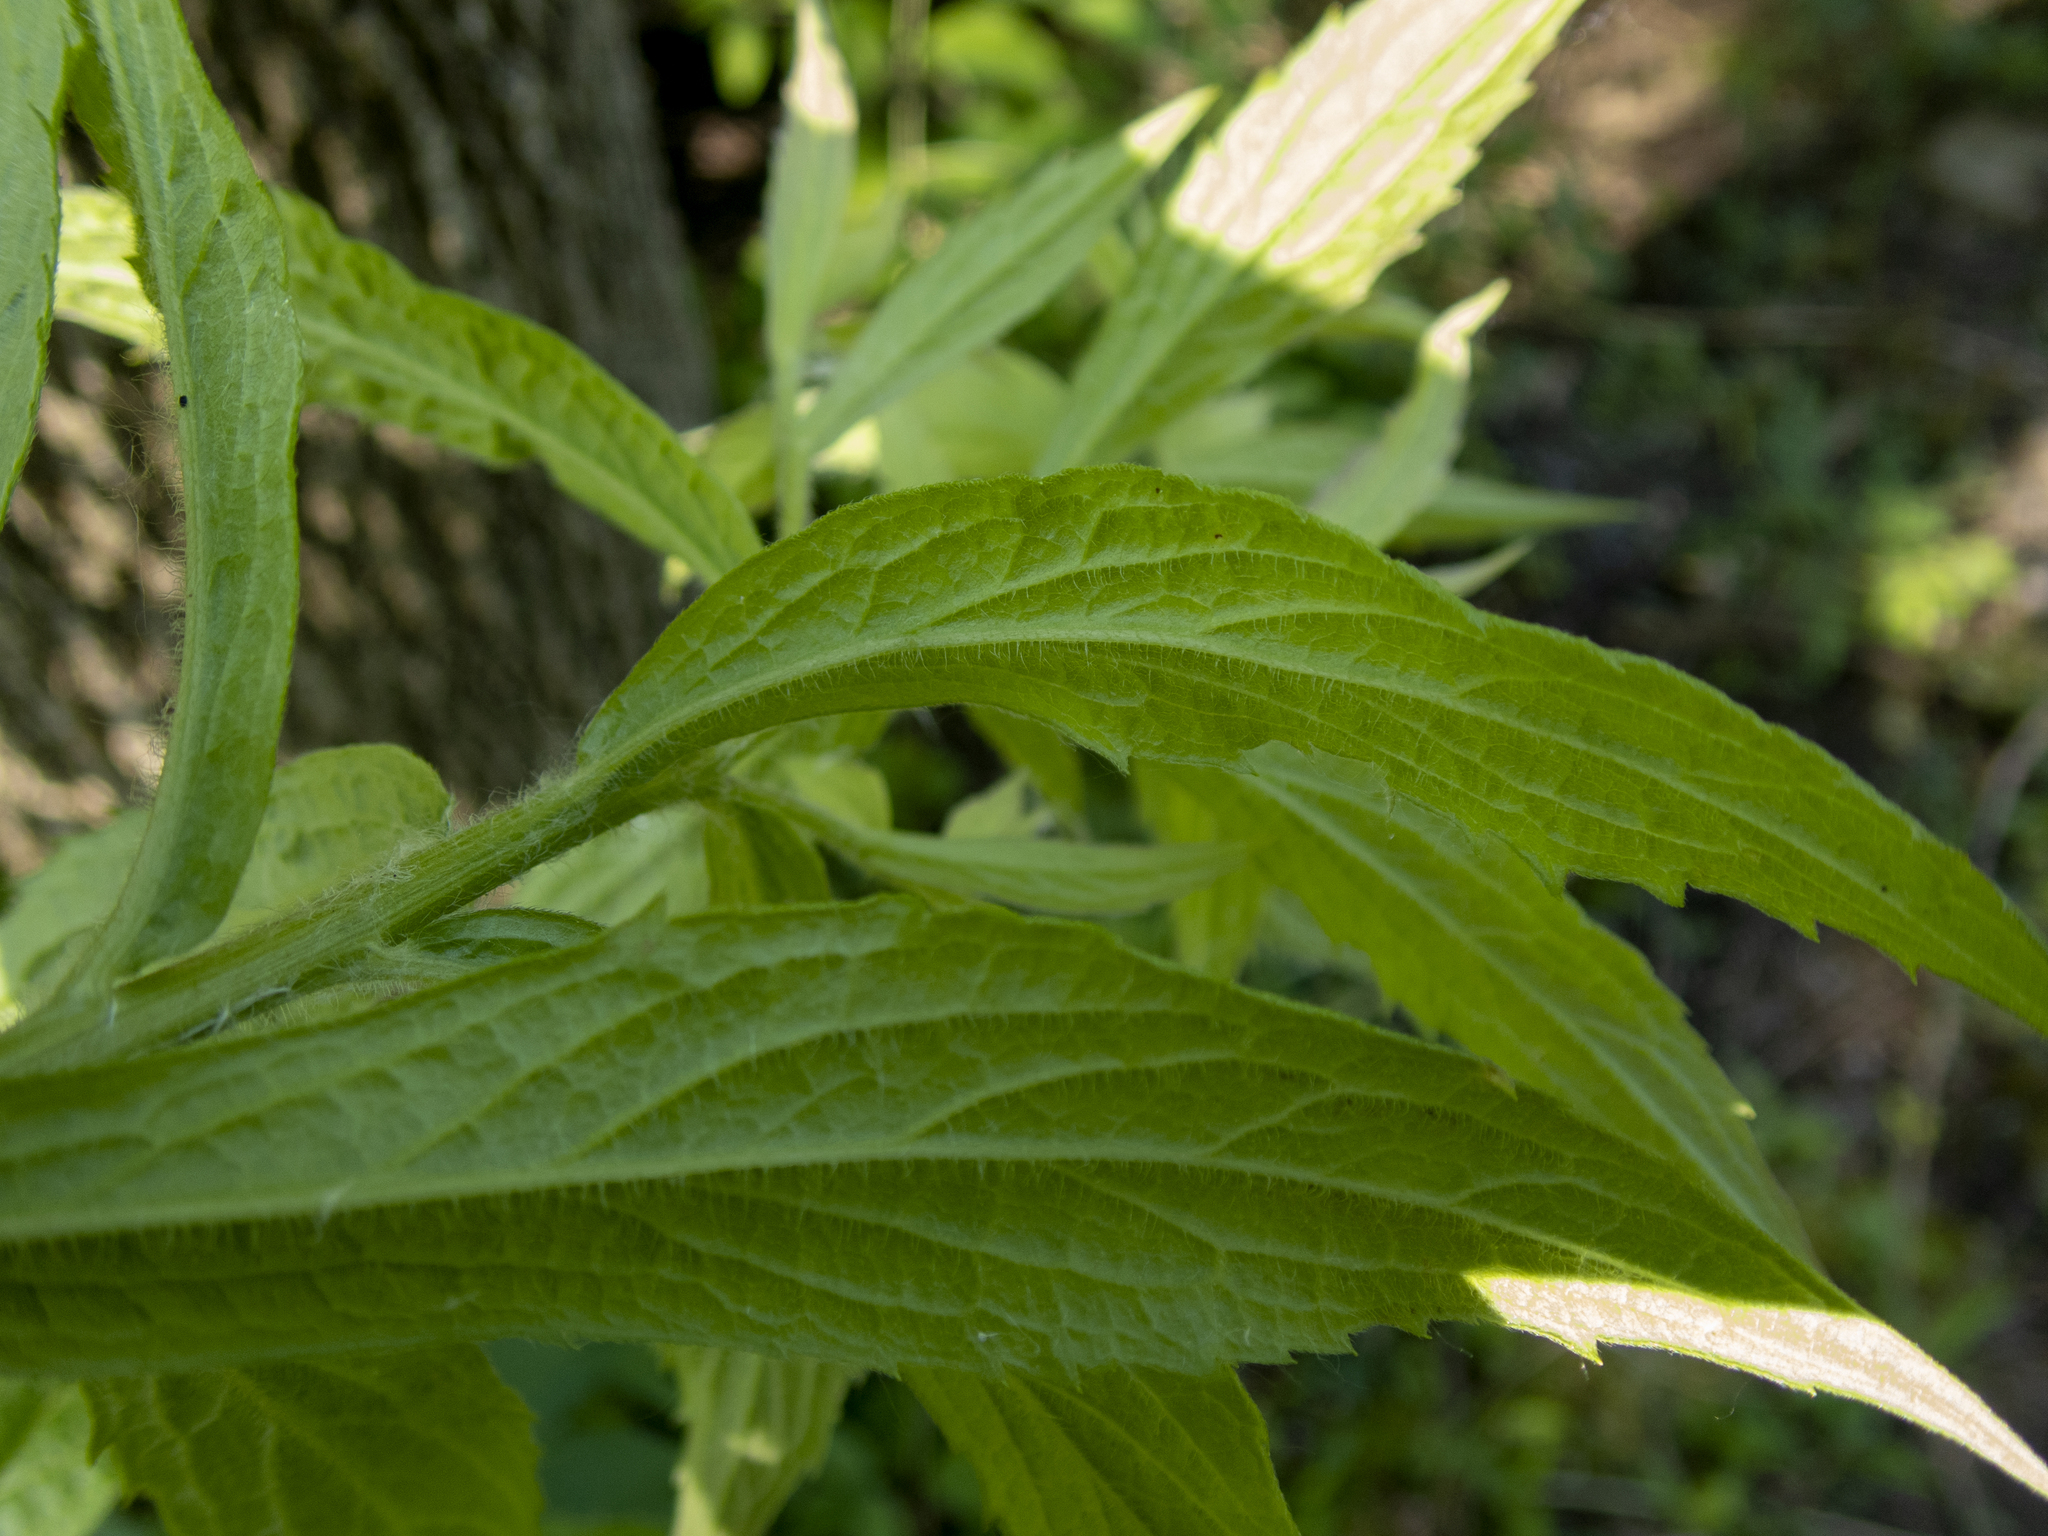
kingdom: Plantae
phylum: Tracheophyta
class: Magnoliopsida
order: Asterales
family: Asteraceae
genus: Solidago
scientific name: Solidago rugosa
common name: Rough-stemmed goldenrod
